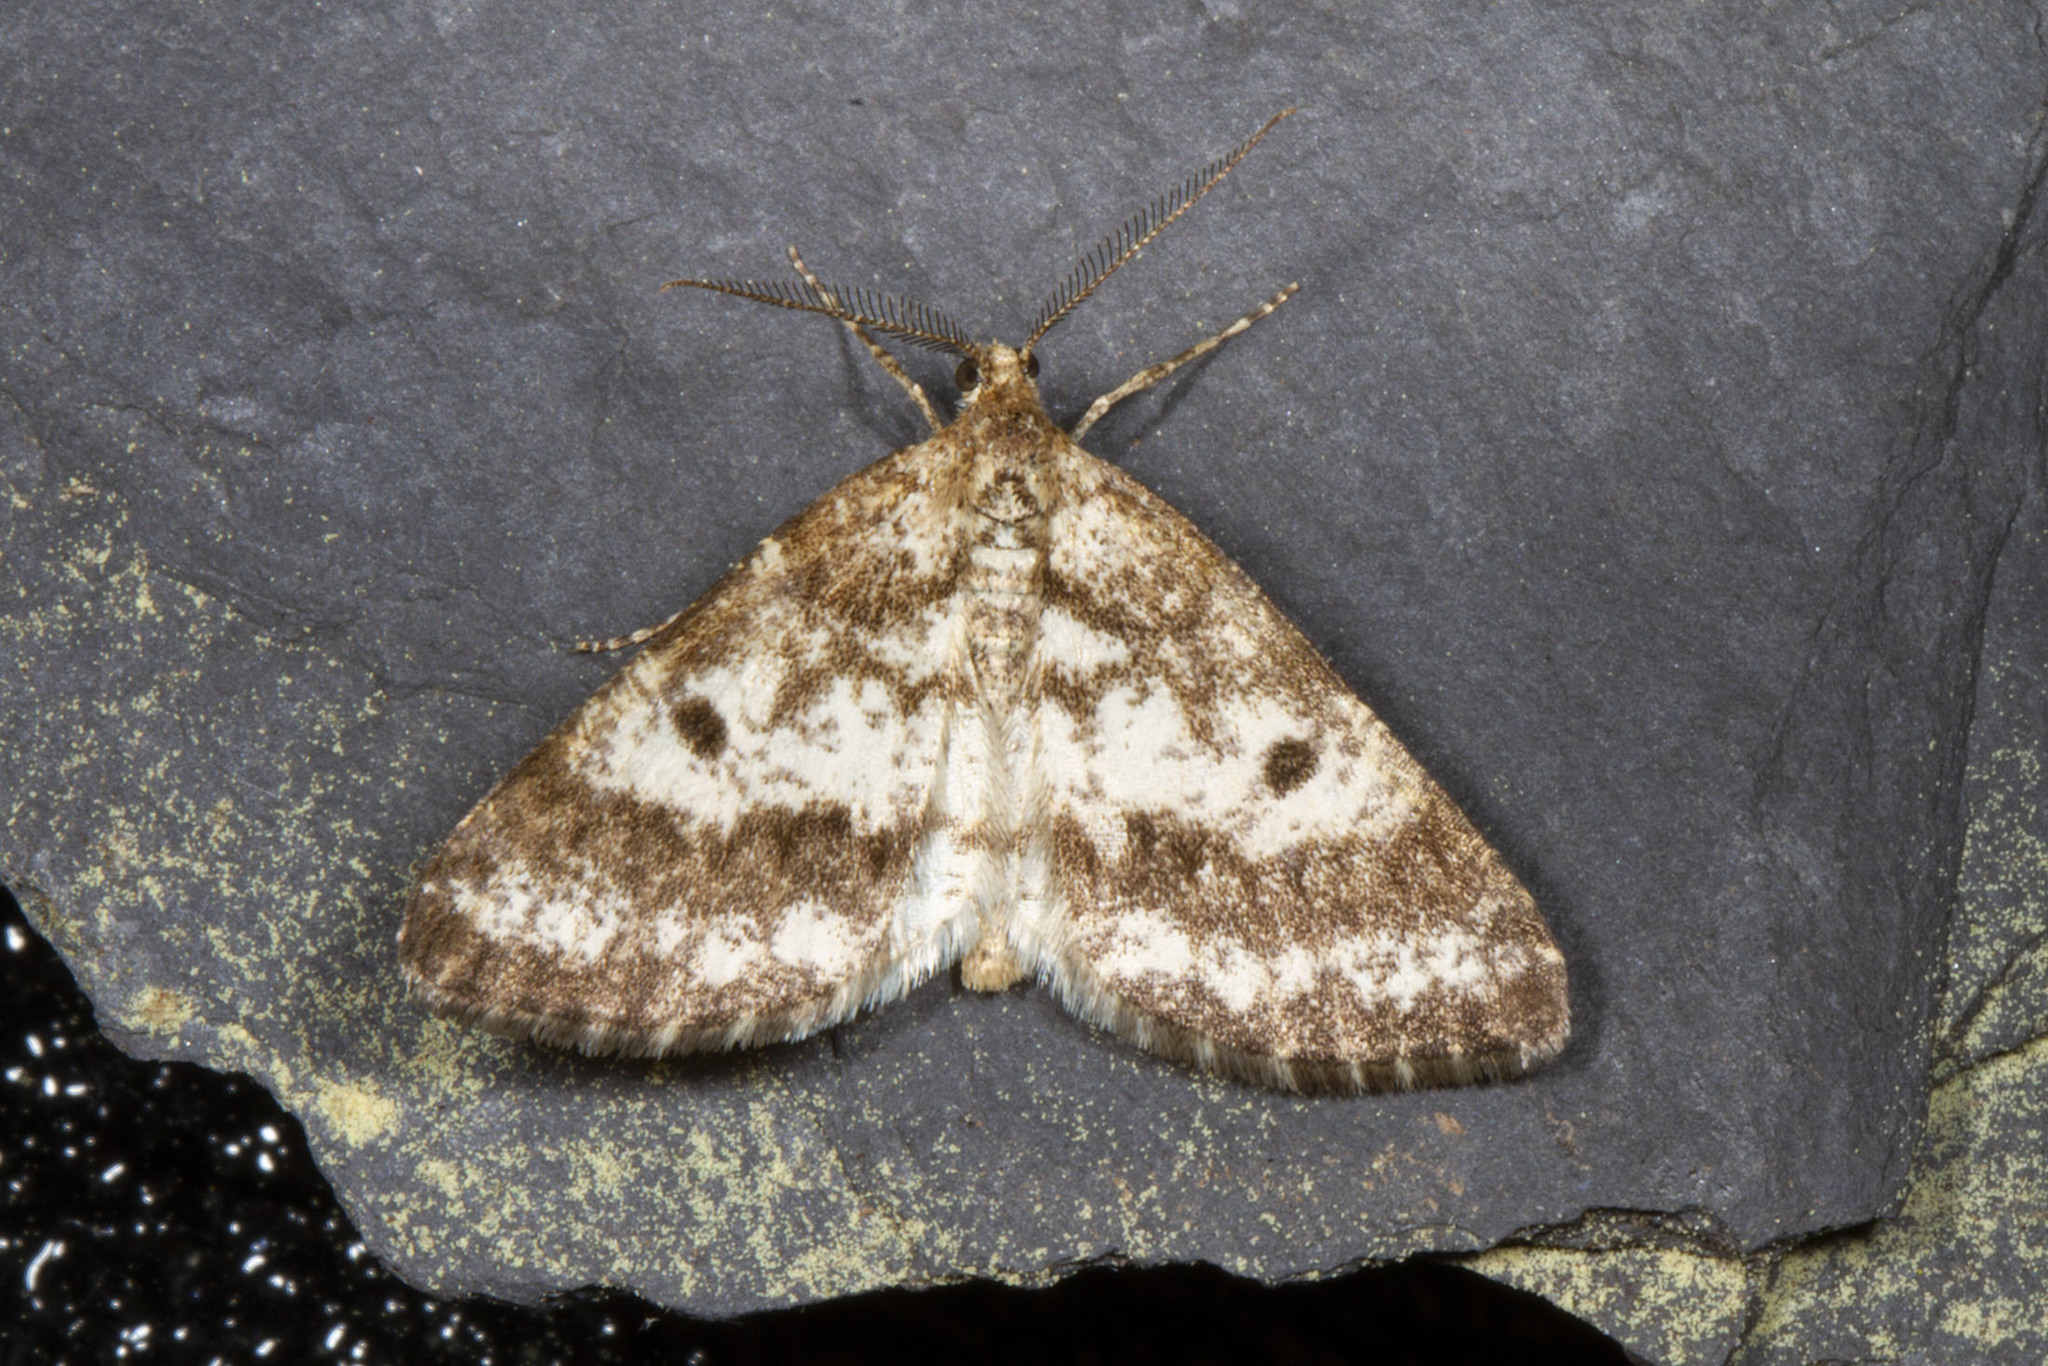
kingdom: Animalia
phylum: Arthropoda
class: Insecta
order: Lepidoptera
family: Geometridae
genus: Eufidonia
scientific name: Eufidonia notataria
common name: Powder moth
